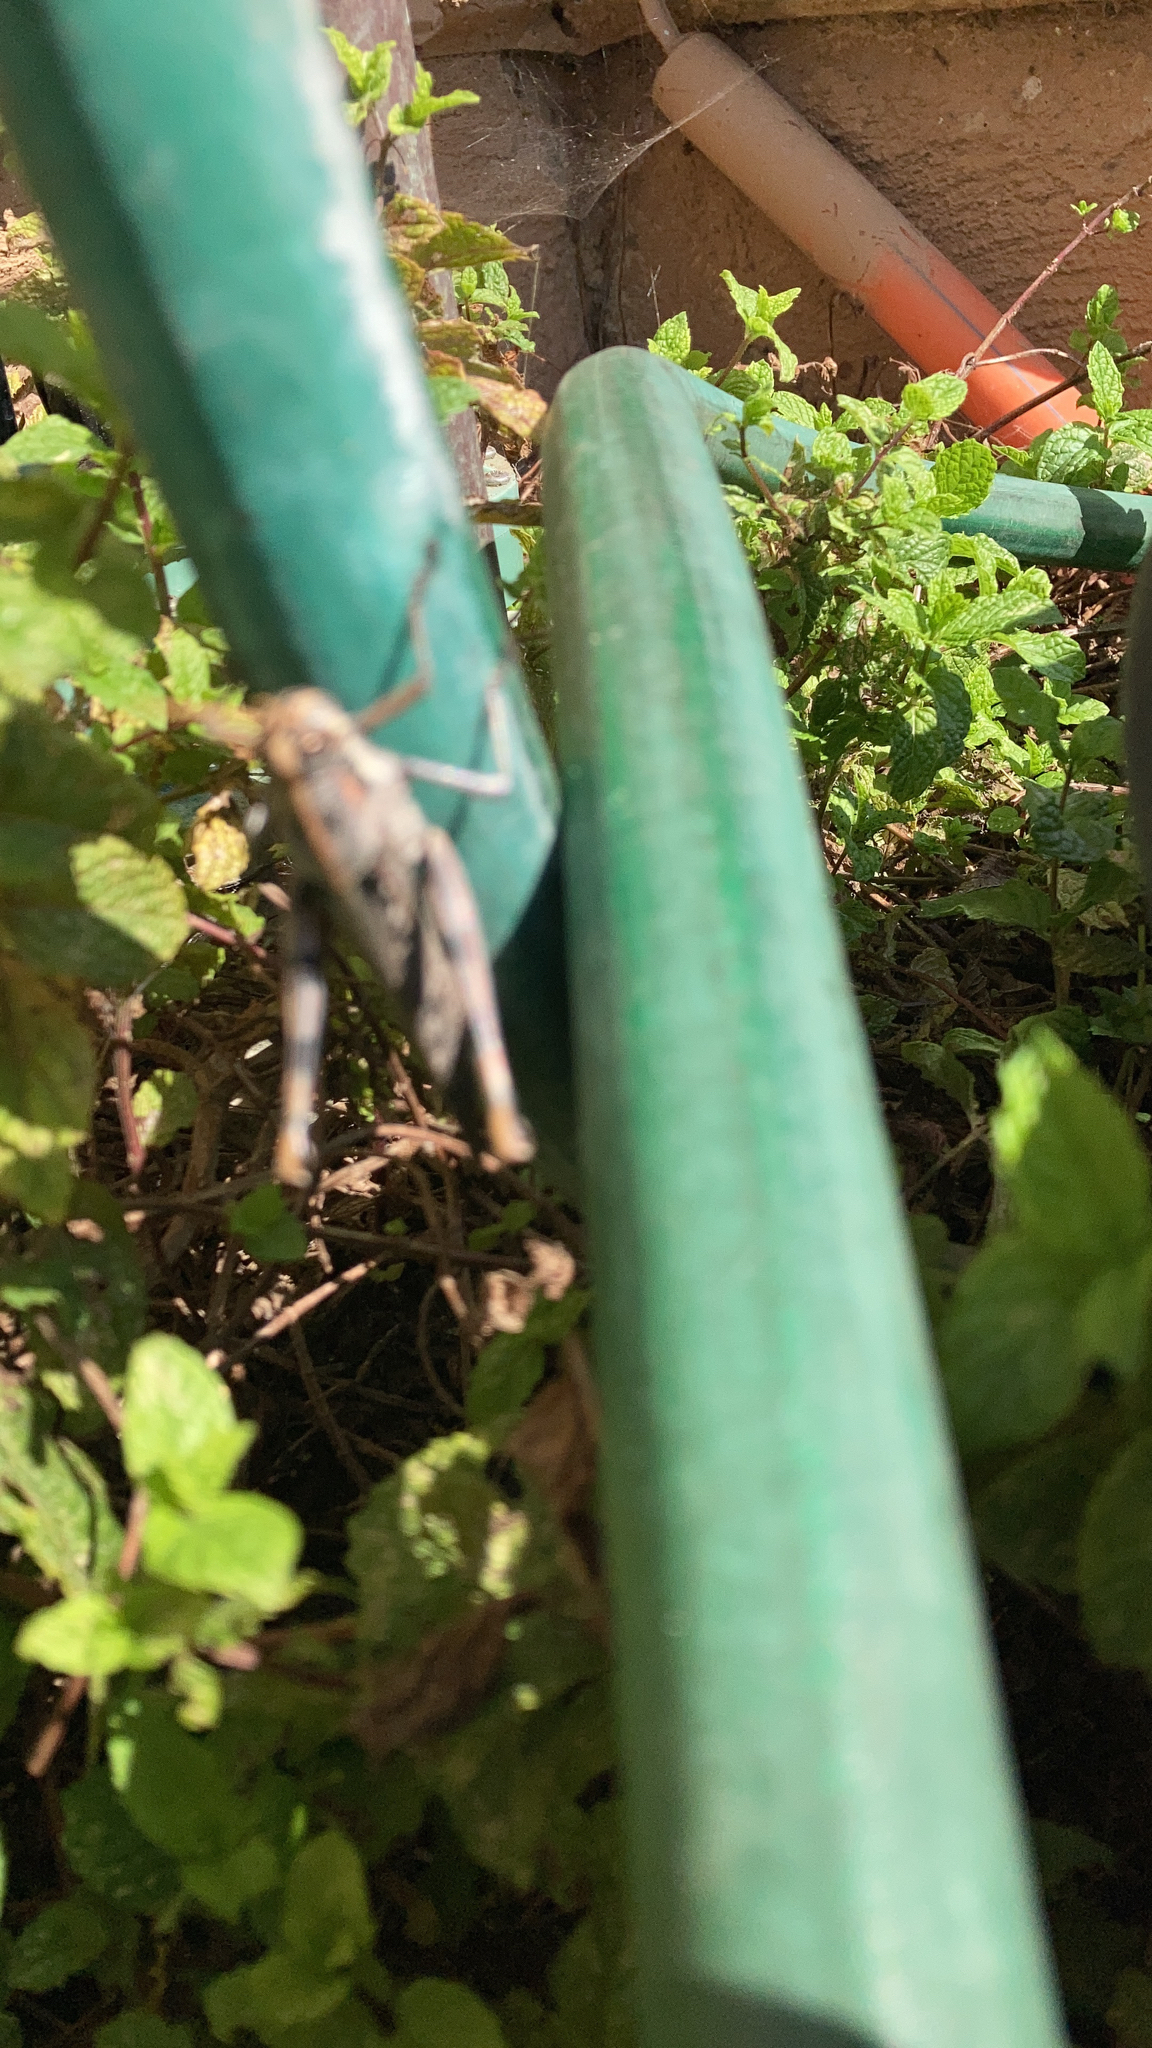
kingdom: Animalia
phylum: Arthropoda
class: Insecta
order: Orthoptera
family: Acrididae
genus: Schistocerca
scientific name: Schistocerca nitens
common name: Vagrant grasshopper
